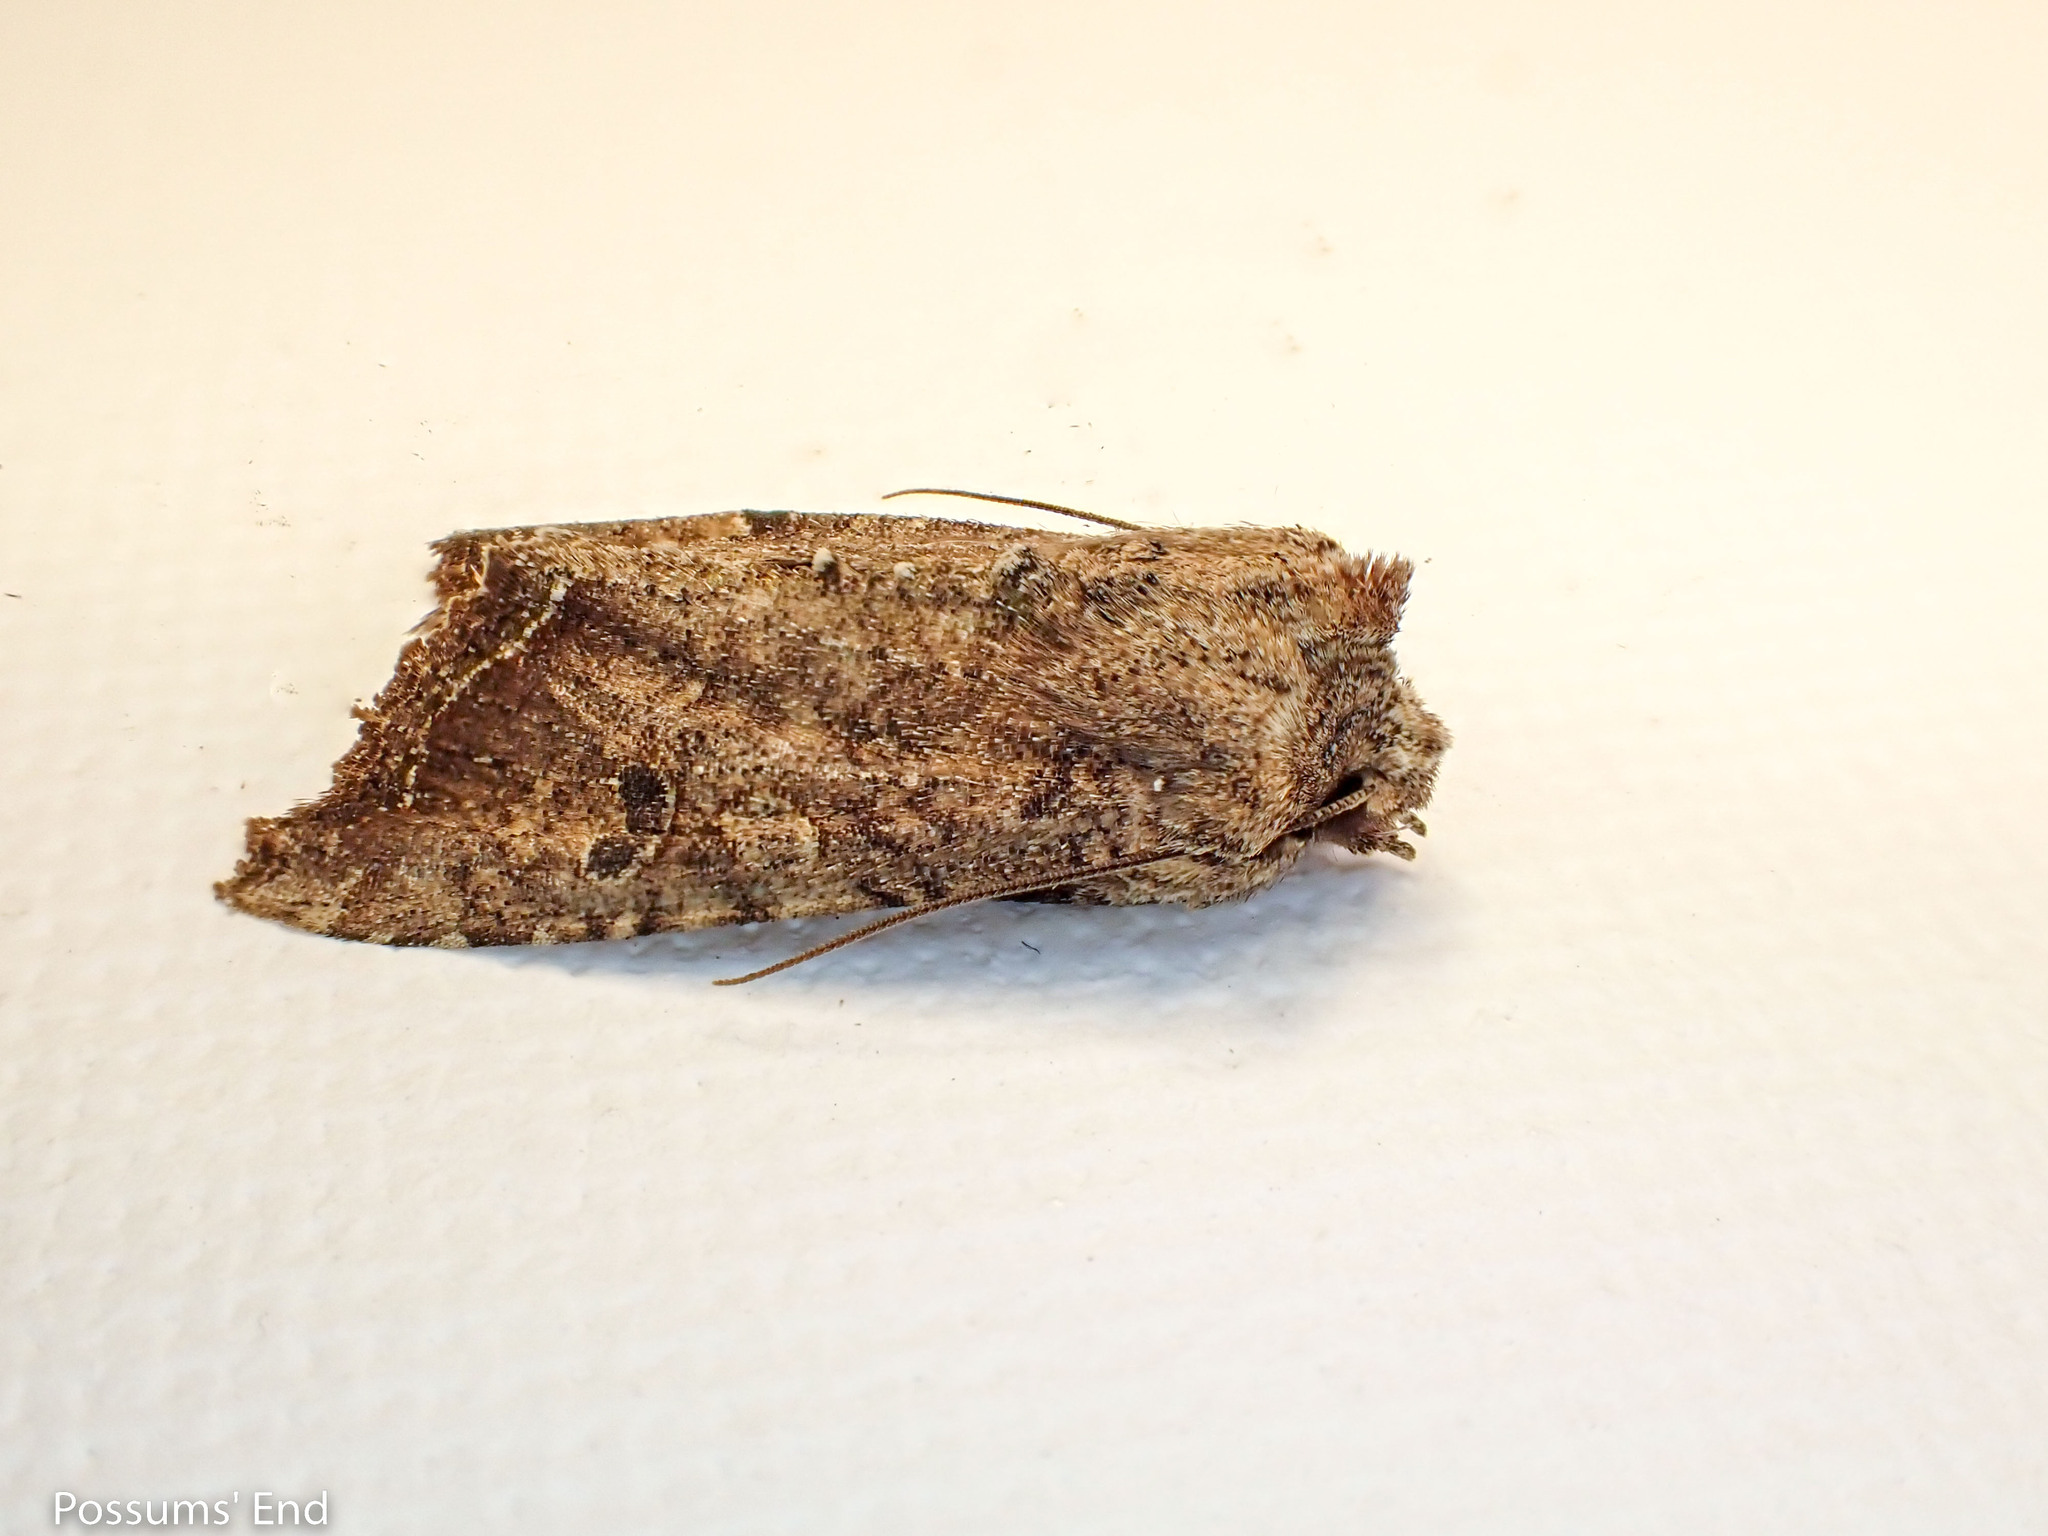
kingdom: Animalia
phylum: Arthropoda
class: Insecta
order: Lepidoptera
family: Noctuidae
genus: Meterana
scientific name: Meterana inchoata
